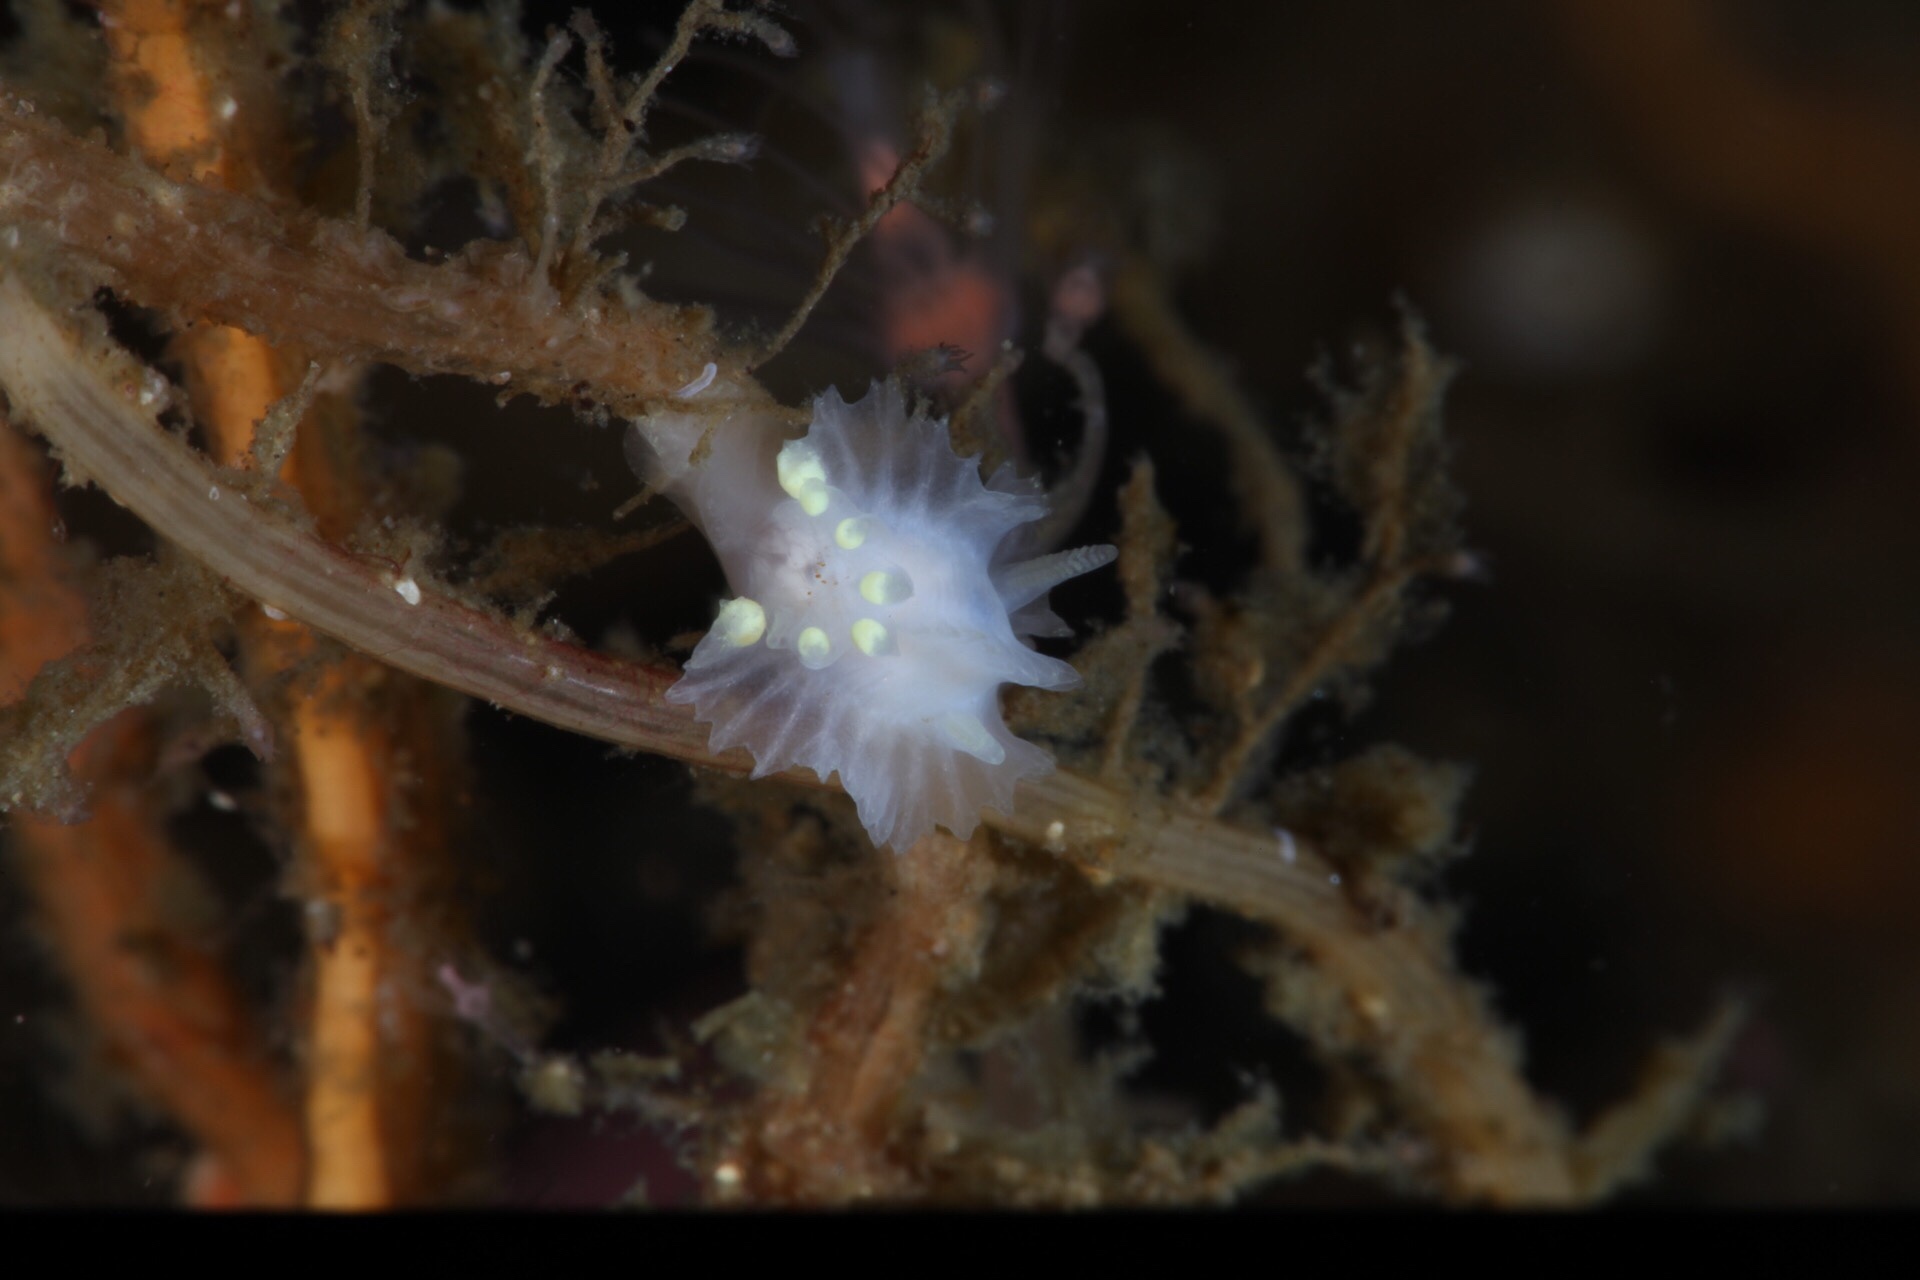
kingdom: Animalia
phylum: Mollusca
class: Gastropoda
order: Nudibranchia
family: Goniodorididae
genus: Lophodoris
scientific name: Lophodoris danielsseni
